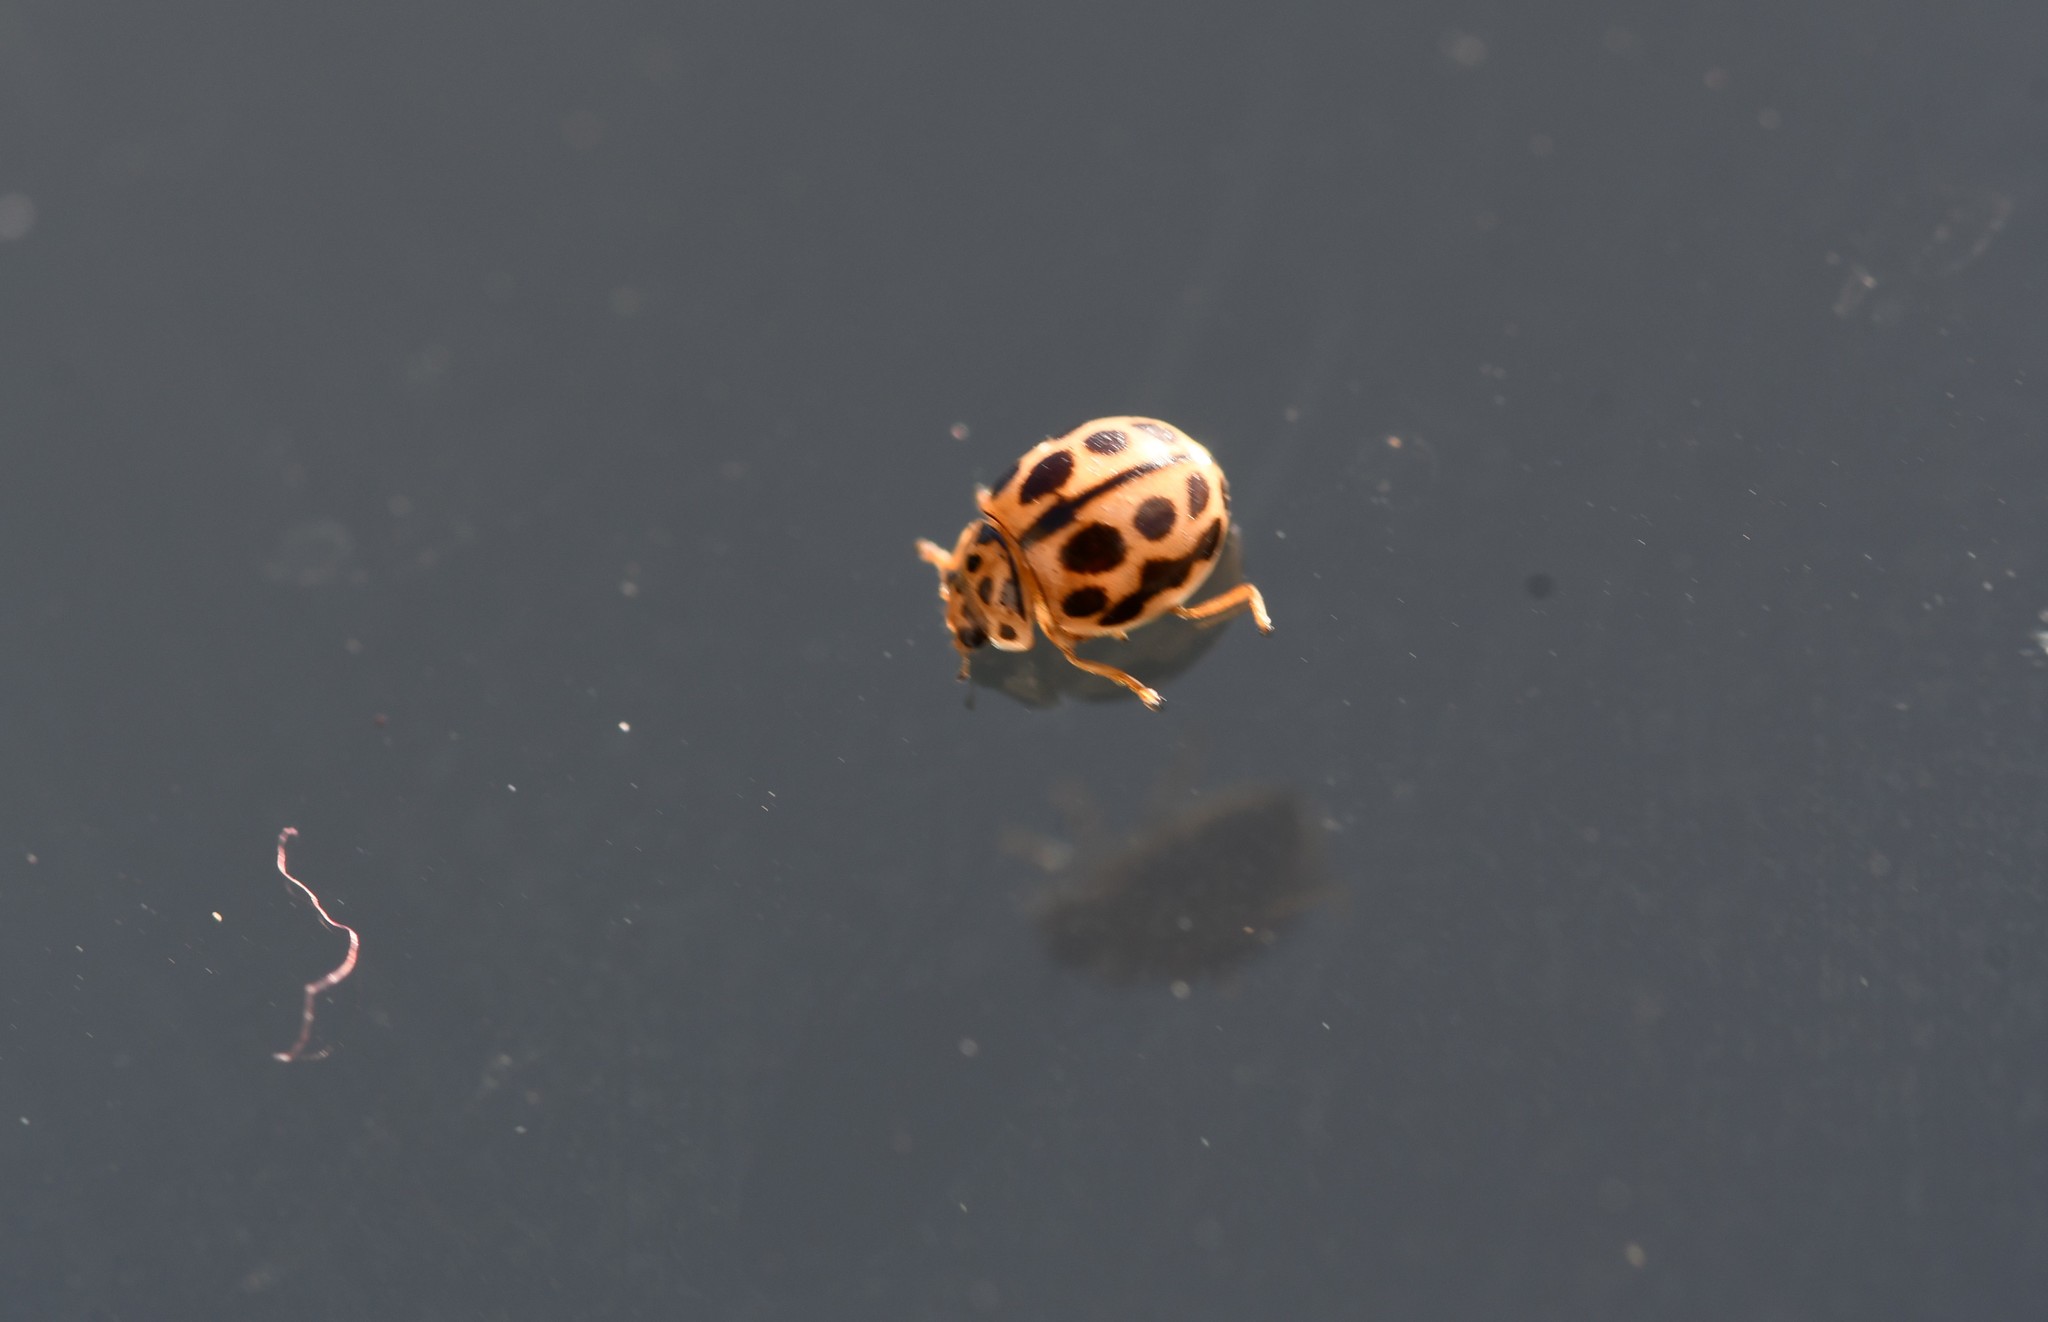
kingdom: Animalia
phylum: Arthropoda
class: Insecta
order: Coleoptera
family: Coccinellidae
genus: Tytthaspis
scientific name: Tytthaspis sedecimpunctata
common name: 16-spot ladybird
